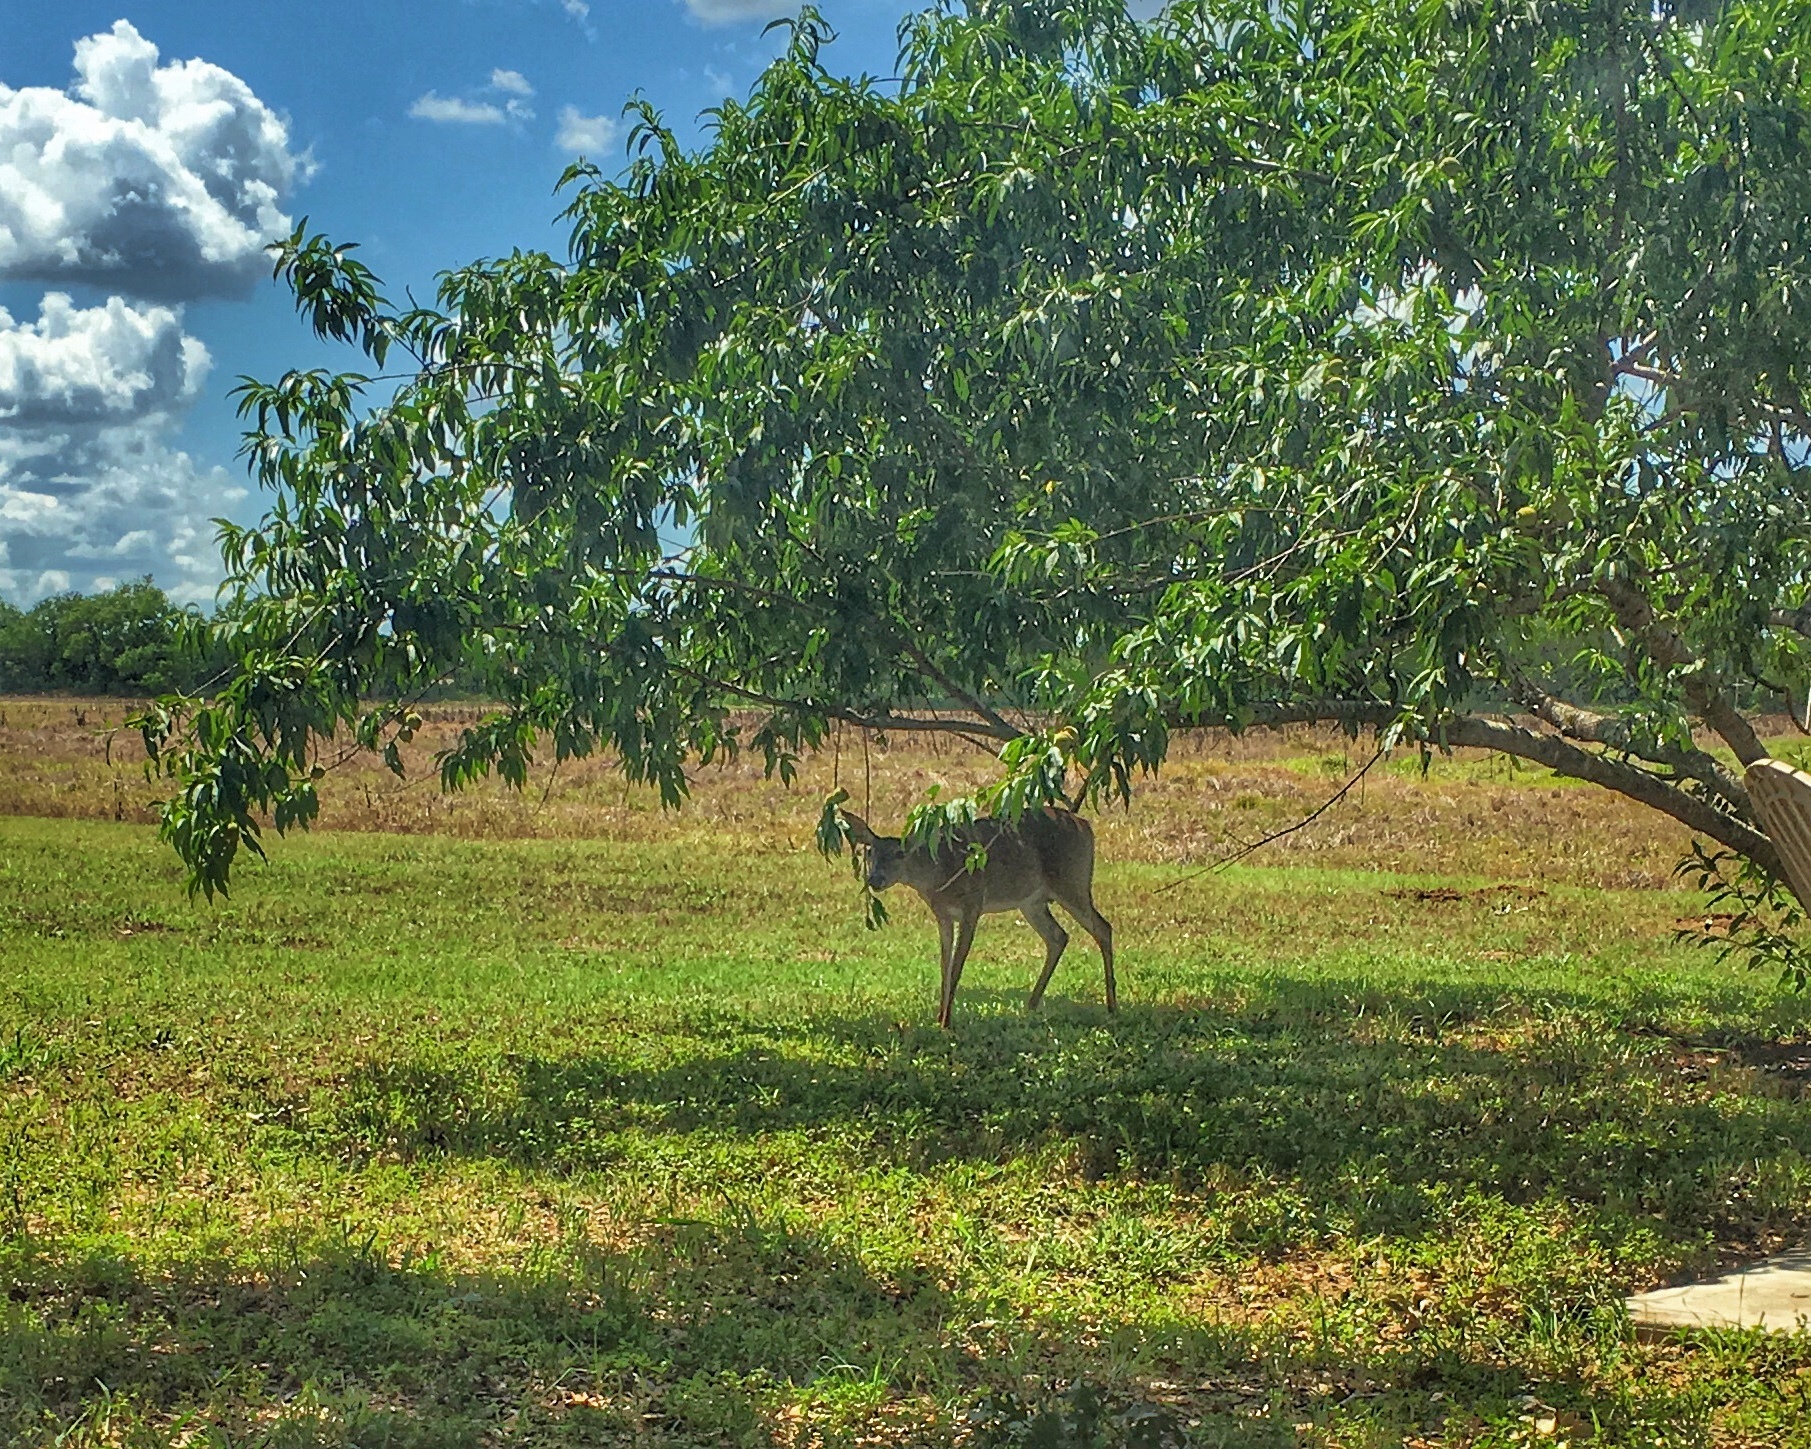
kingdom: Animalia
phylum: Chordata
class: Mammalia
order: Artiodactyla
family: Cervidae
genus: Odocoileus
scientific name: Odocoileus virginianus
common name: White-tailed deer
